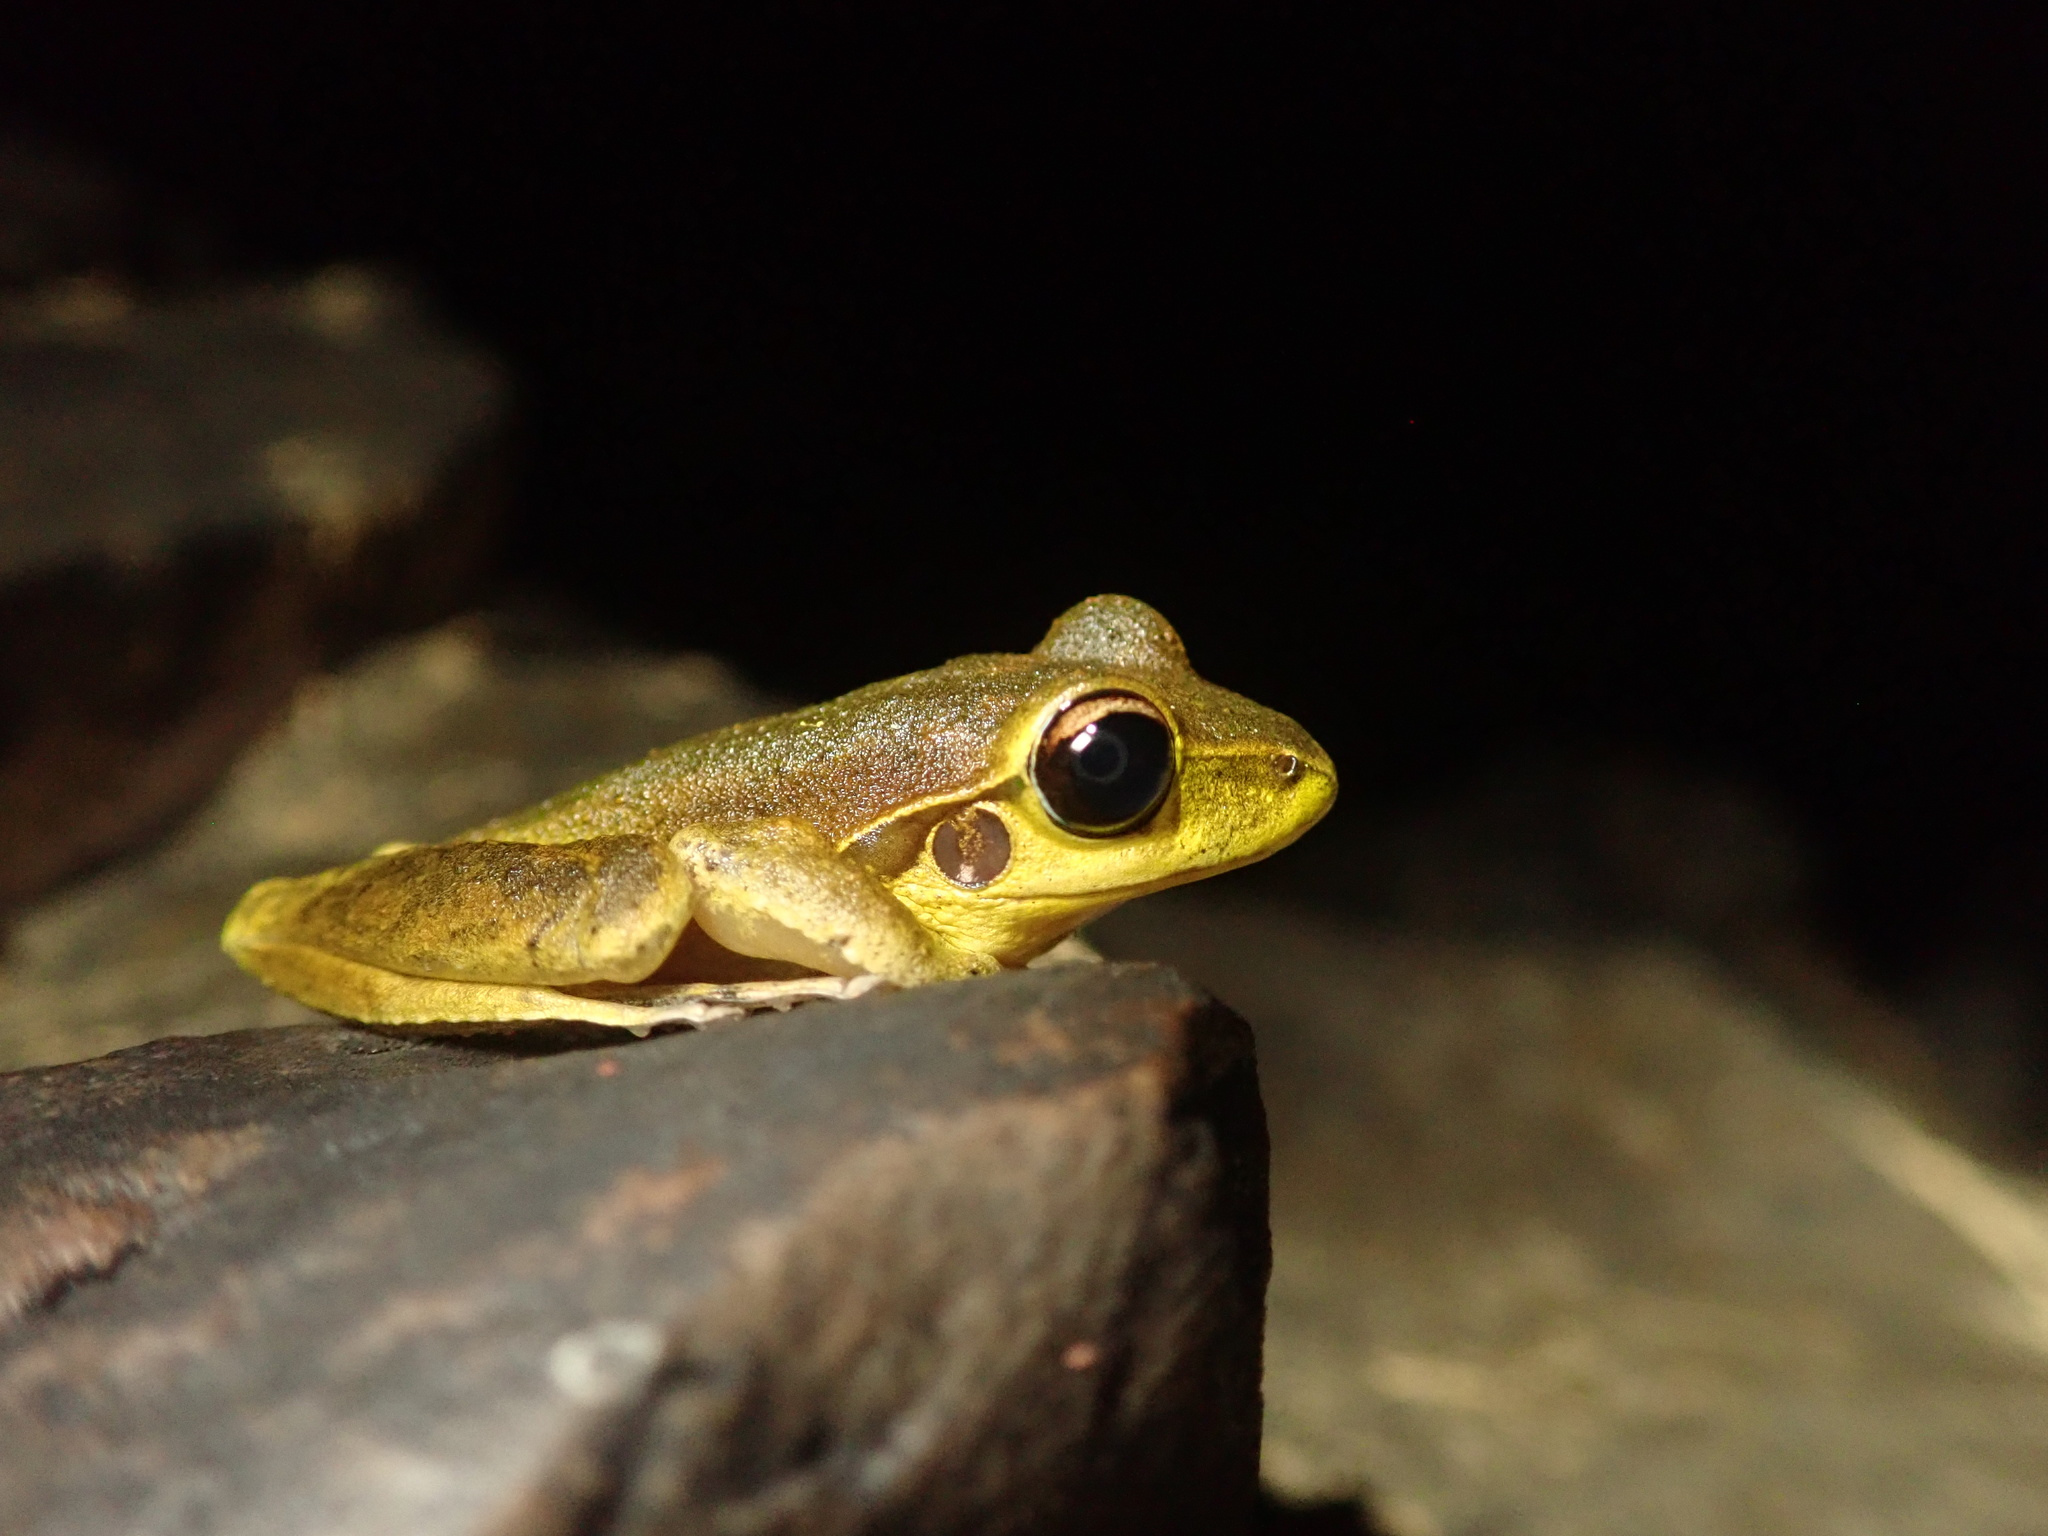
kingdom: Animalia
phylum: Chordata
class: Amphibia
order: Anura
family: Hylidae
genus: Ranoidea
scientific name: Ranoidea
